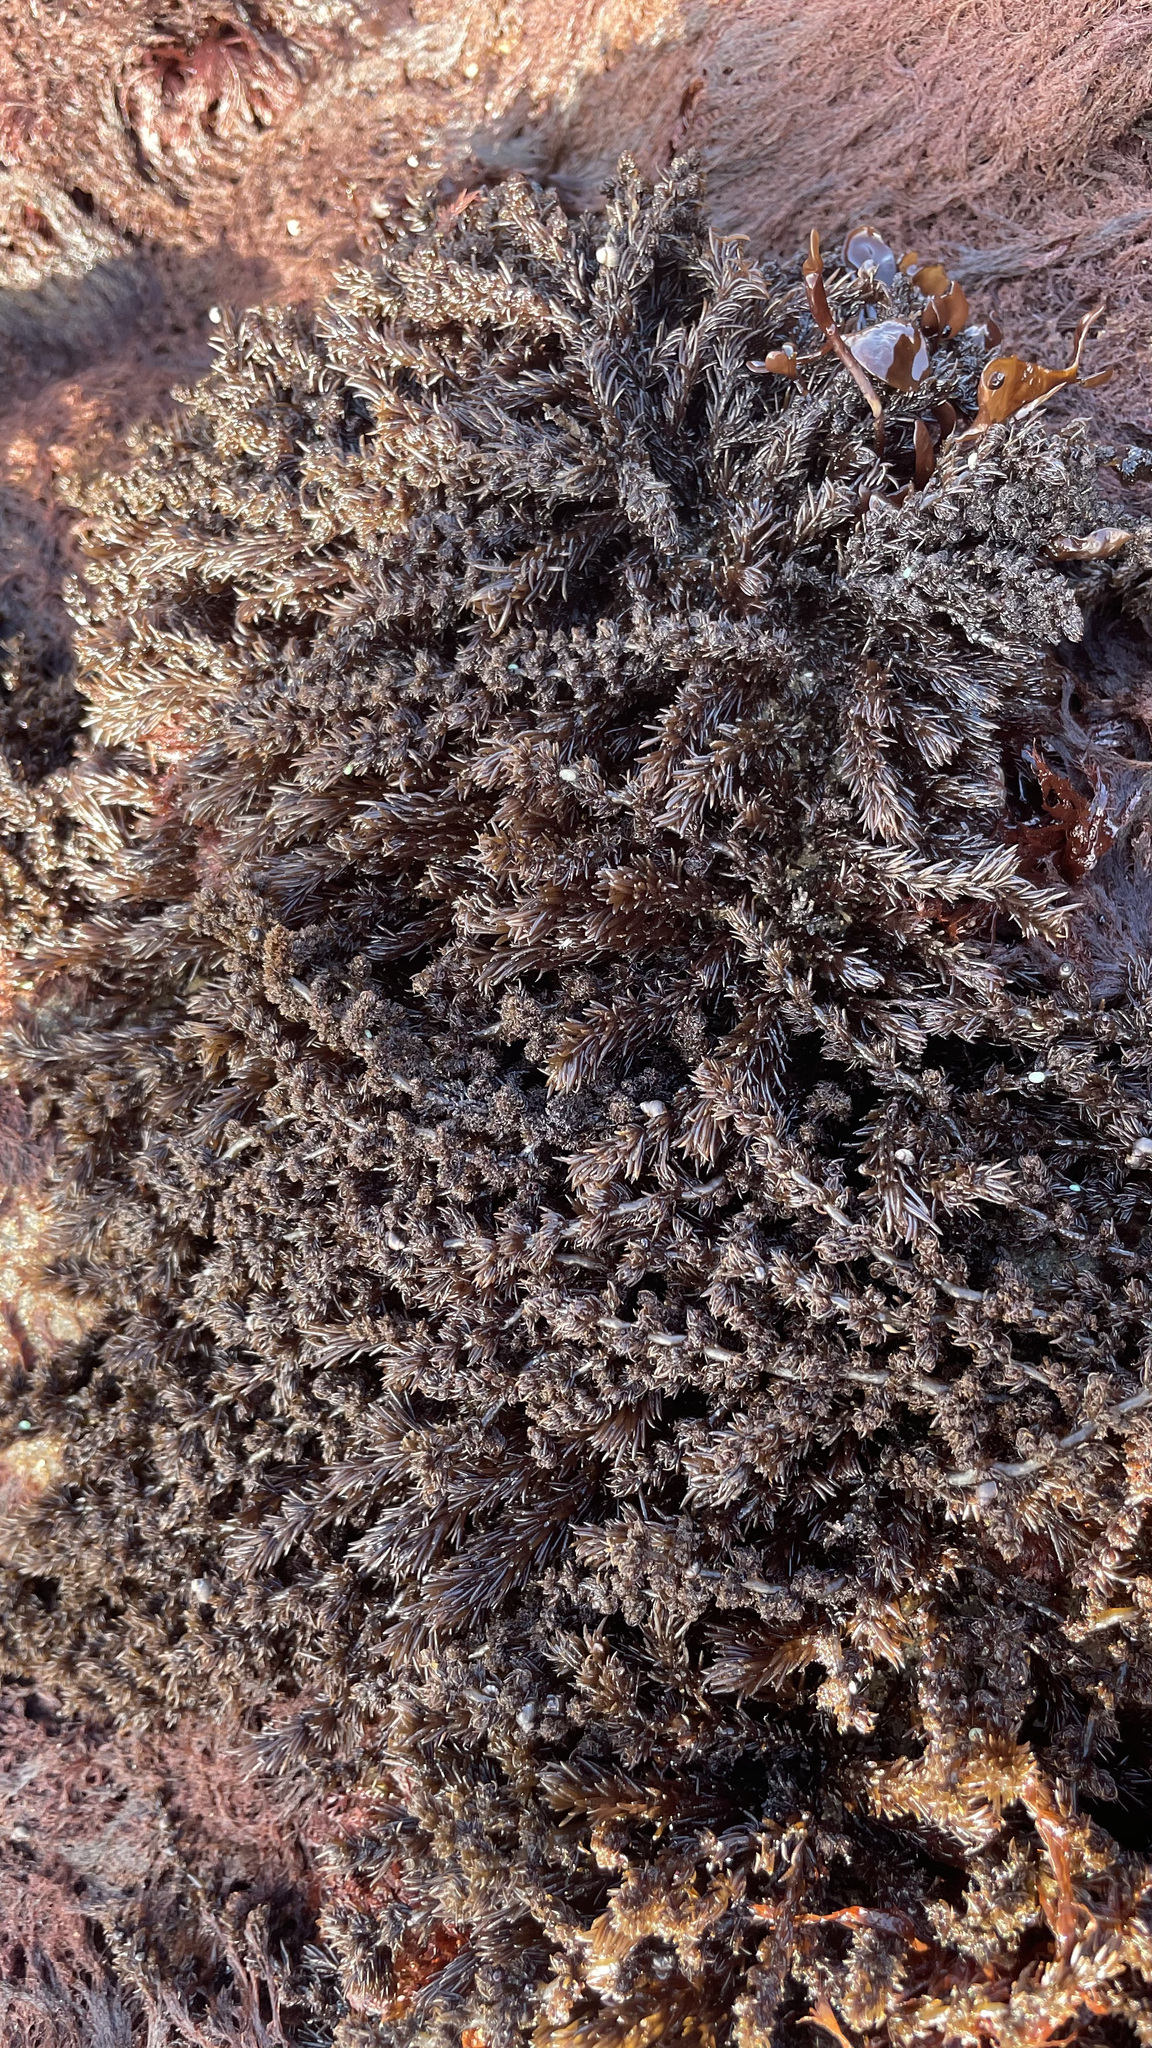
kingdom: Plantae
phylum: Rhodophyta
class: Florideophyceae
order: Ceramiales
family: Rhodomelaceae
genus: Neorhodomela
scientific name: Neorhodomela larix
